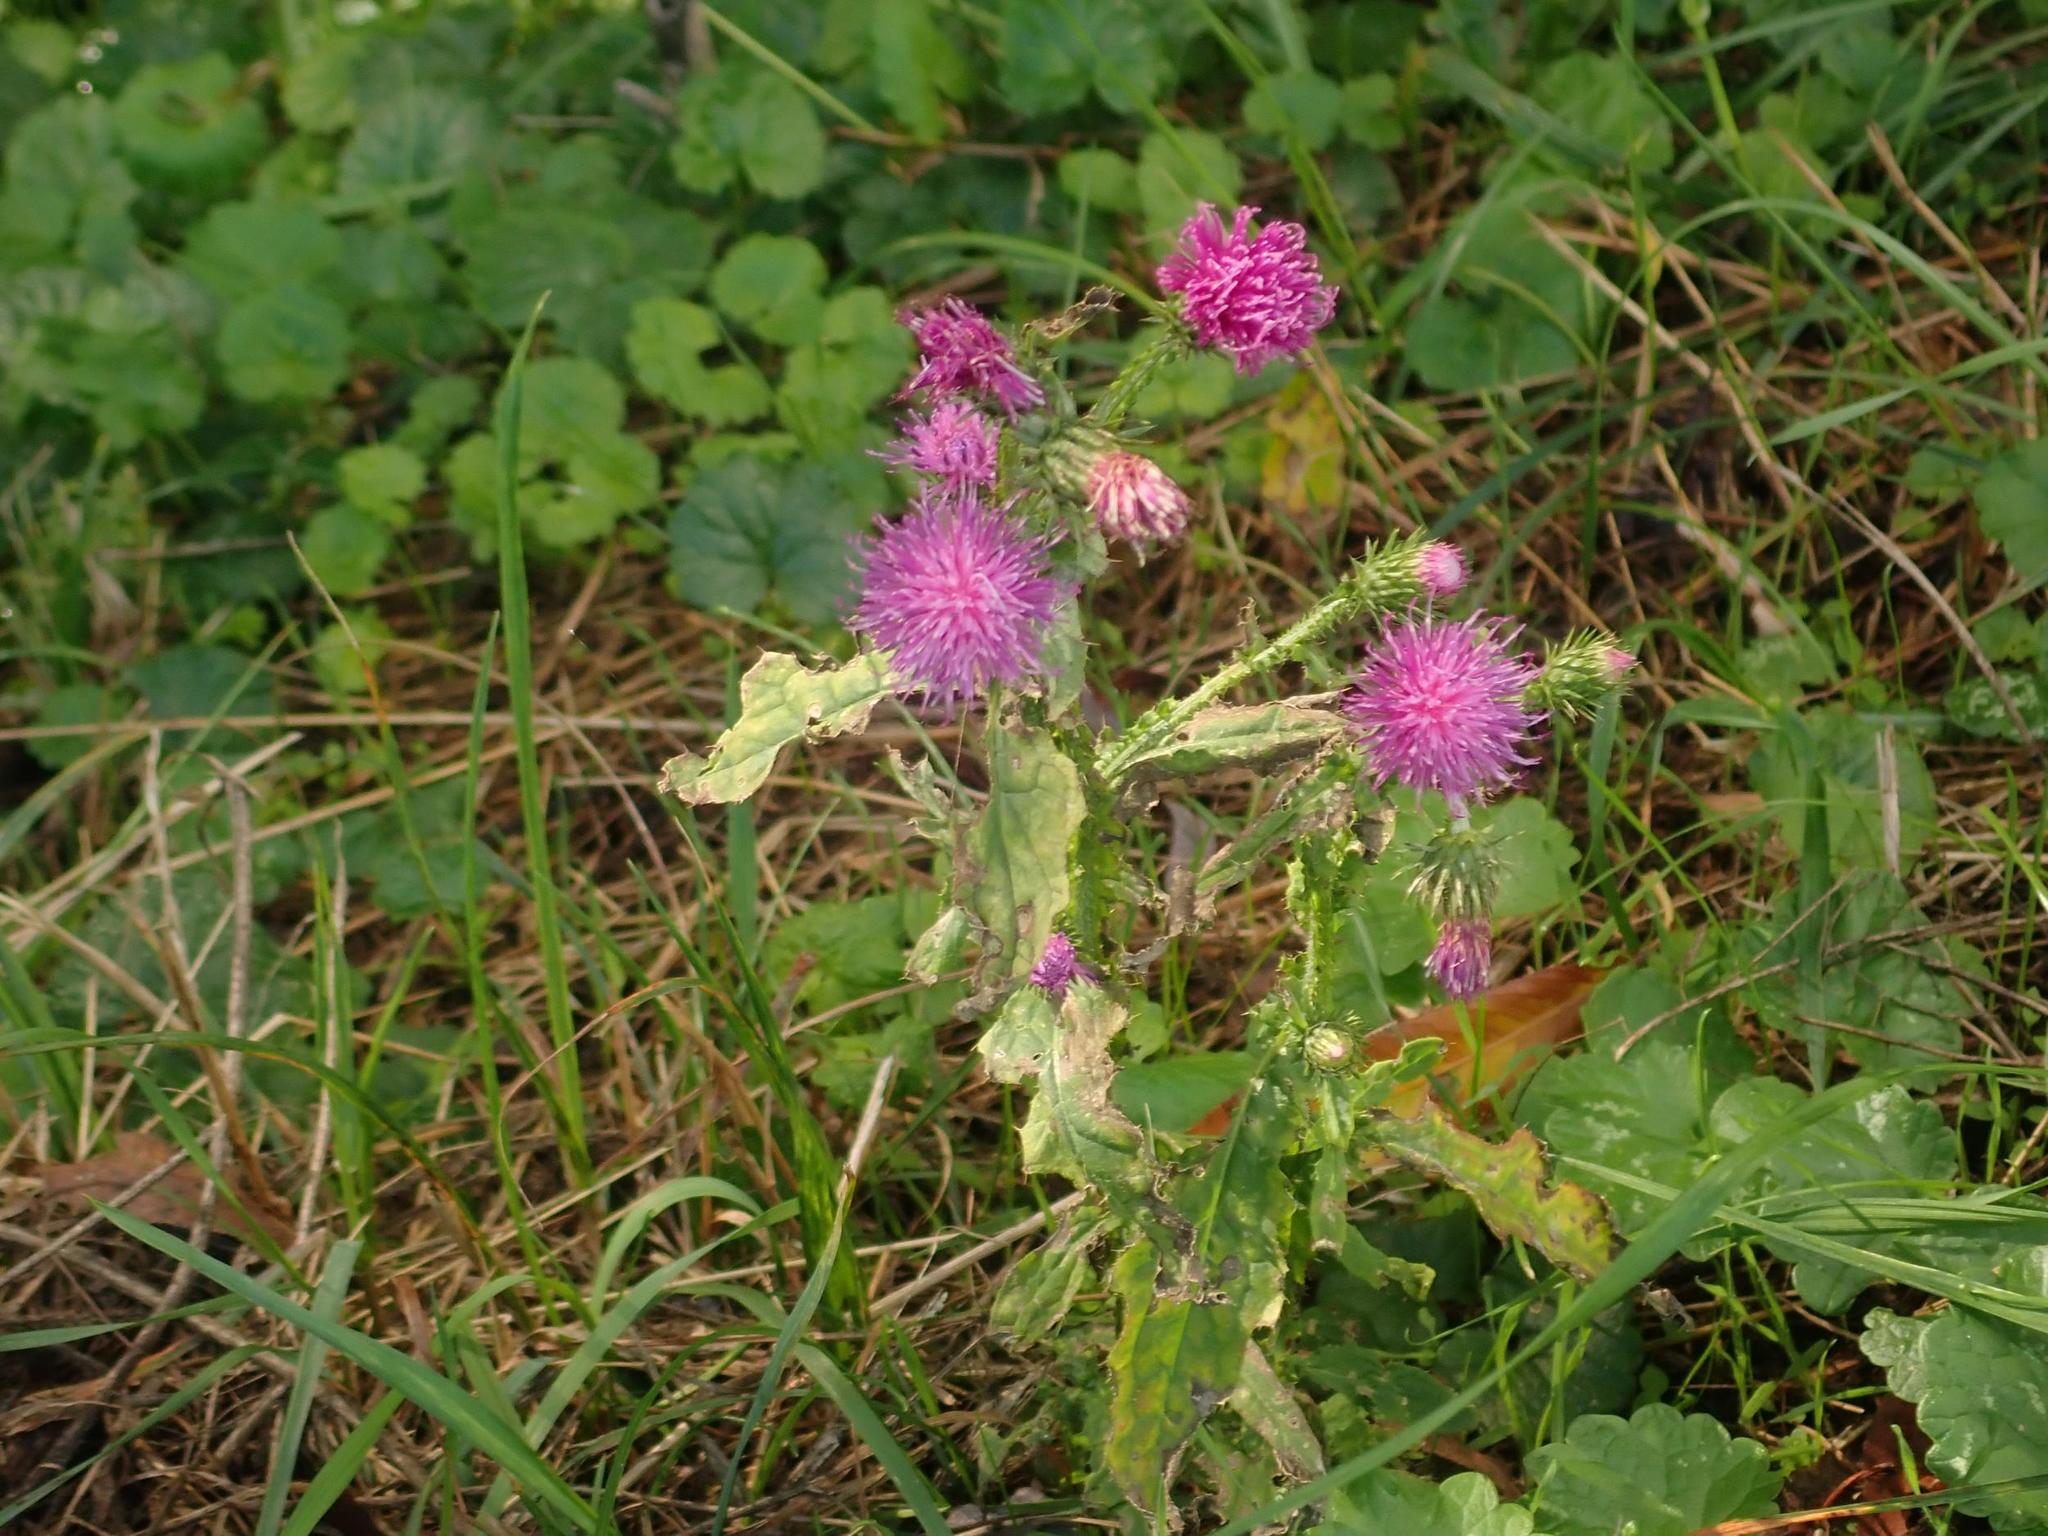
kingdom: Plantae
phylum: Tracheophyta
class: Magnoliopsida
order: Asterales
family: Asteraceae
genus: Carduus
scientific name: Carduus crispus
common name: Welted thistle
